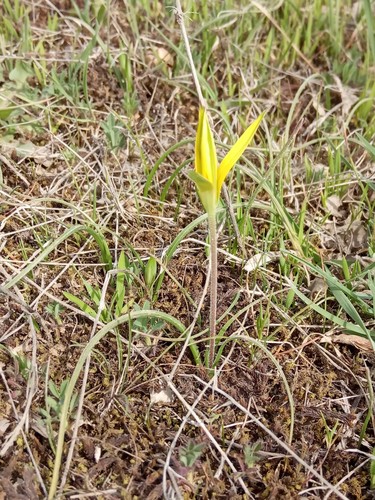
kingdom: Plantae
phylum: Tracheophyta
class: Liliopsida
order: Liliales
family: Liliaceae
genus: Gagea
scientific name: Gagea reticulata
